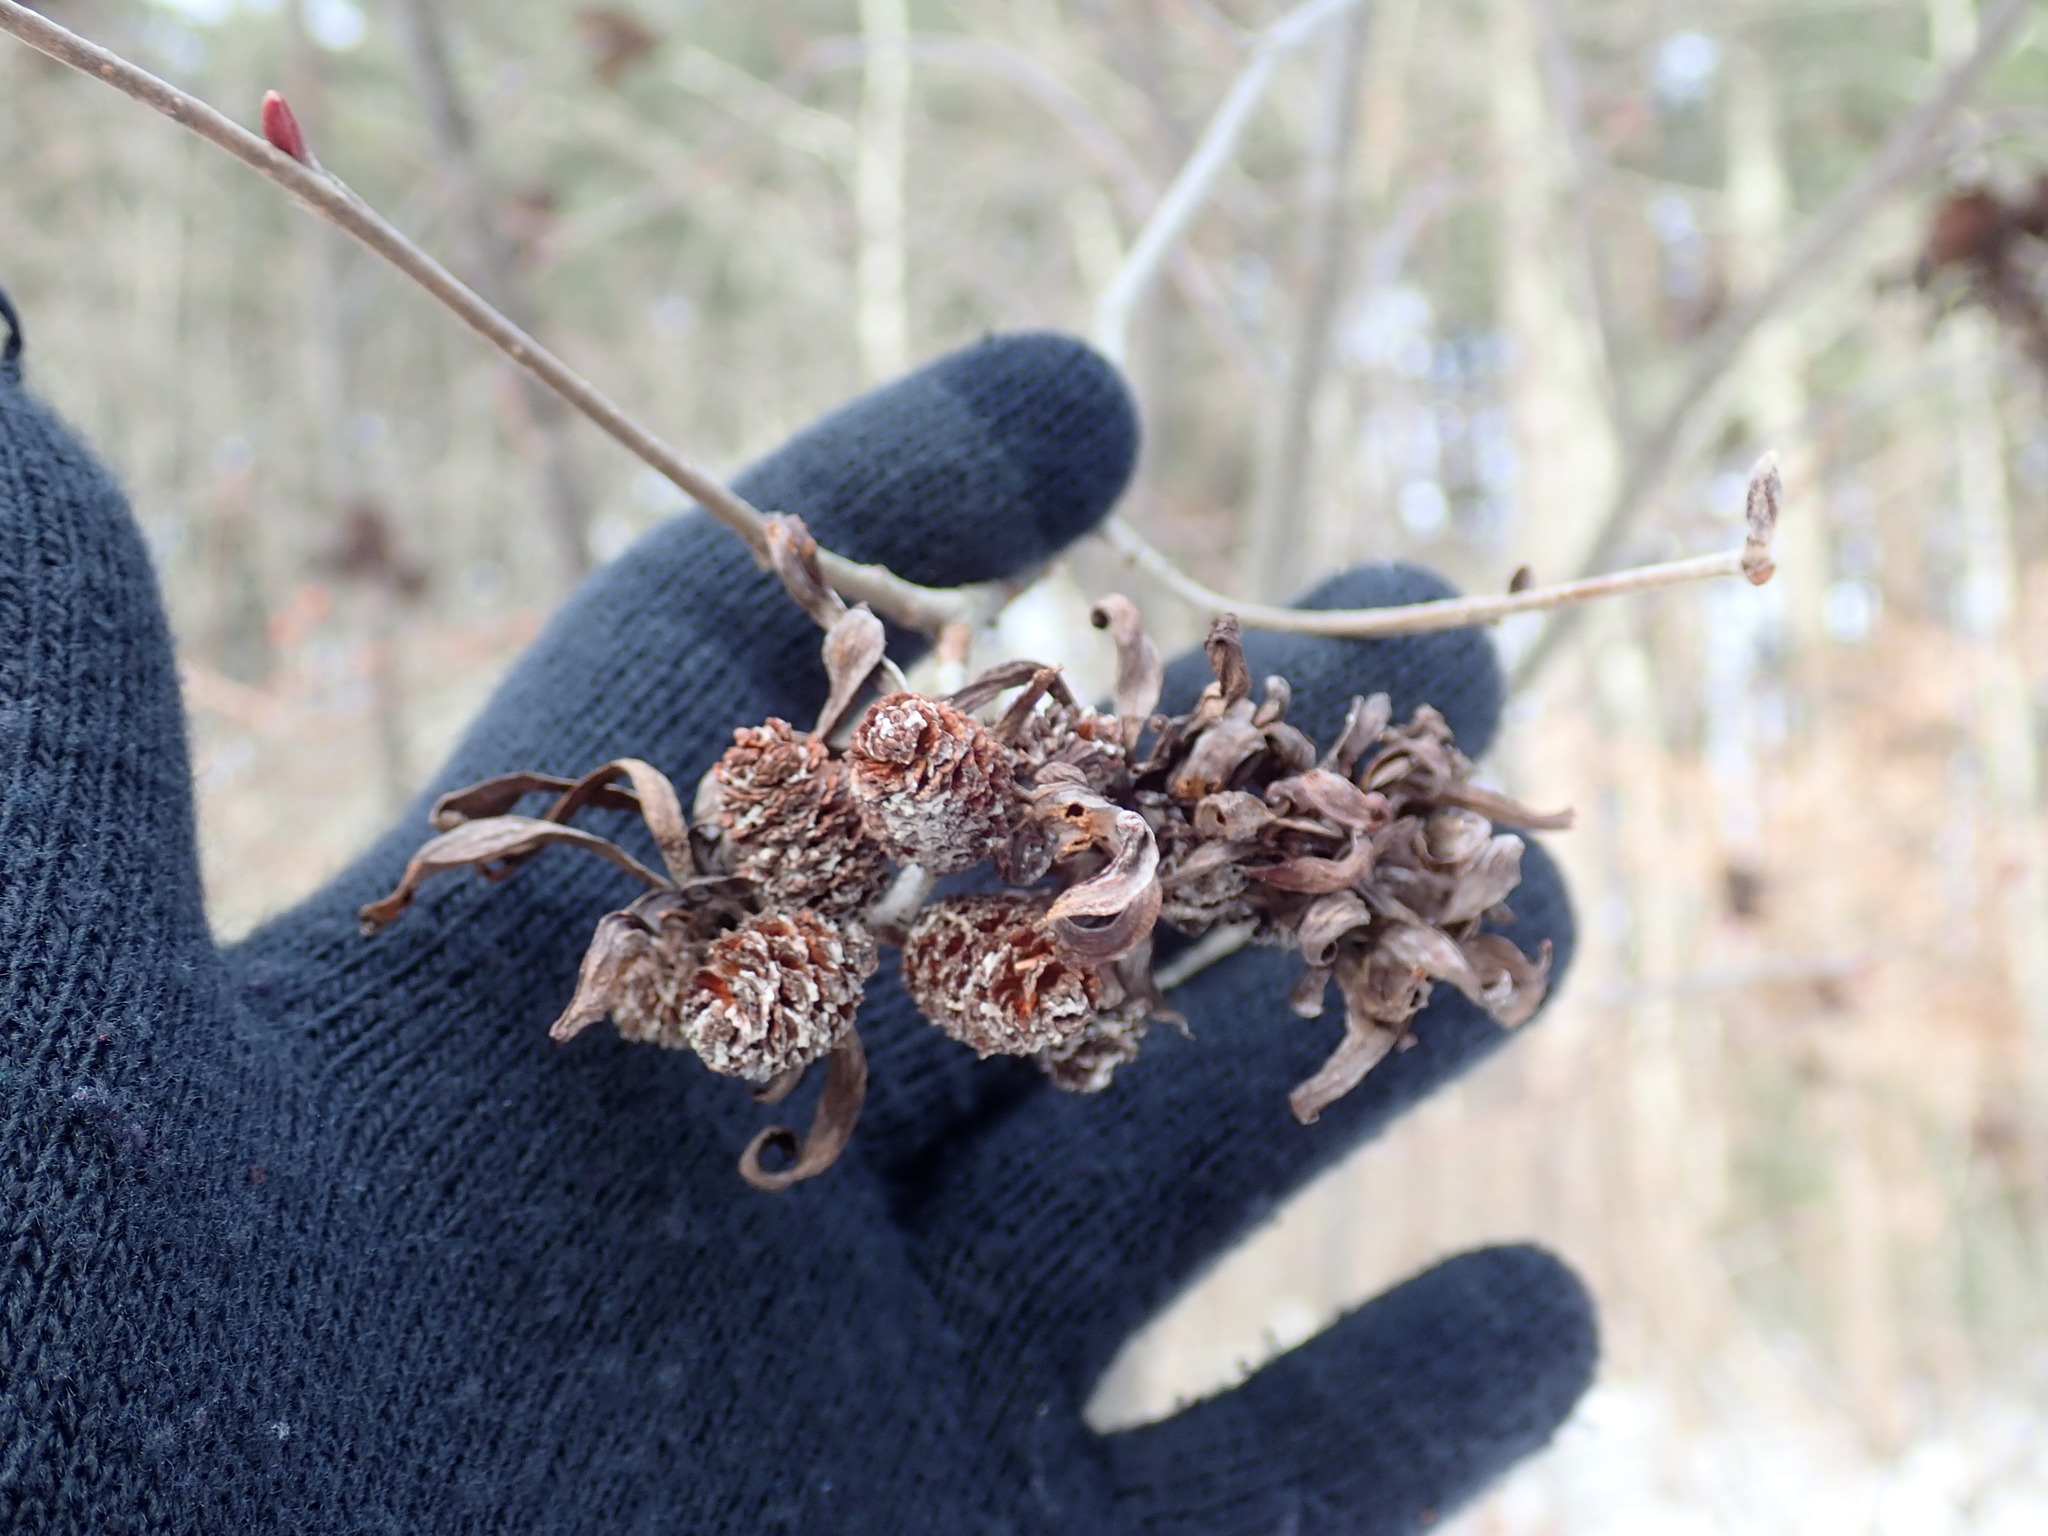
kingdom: Fungi
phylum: Ascomycota
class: Taphrinomycetes
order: Taphrinales
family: Taphrinaceae
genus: Taphrina
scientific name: Taphrina robinsoniana
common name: Eastern american alder tongue gall fungus
